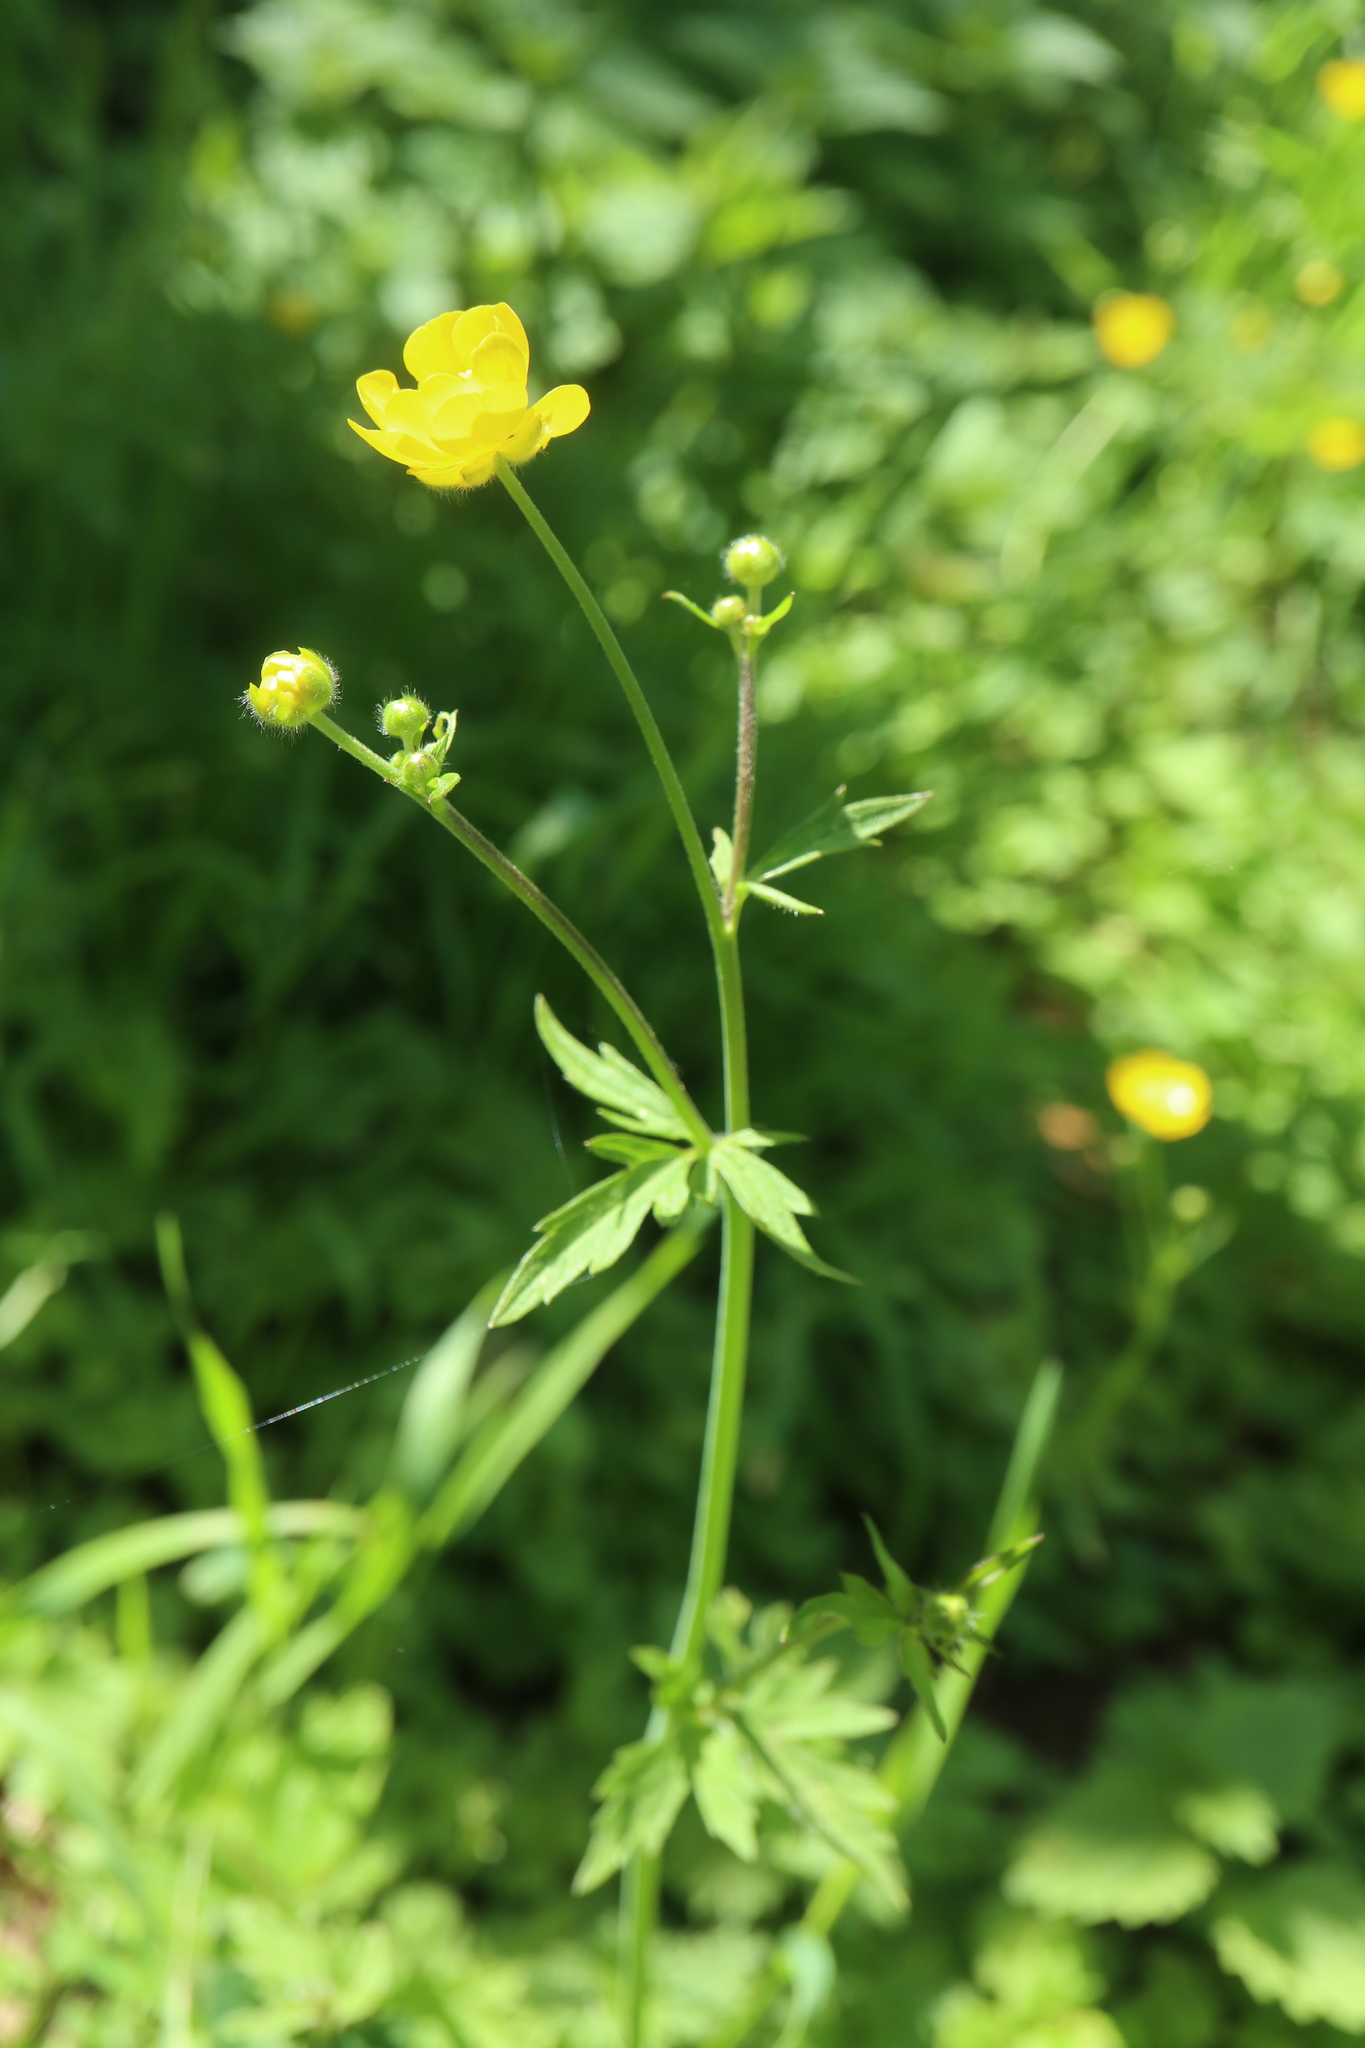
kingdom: Plantae
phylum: Tracheophyta
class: Magnoliopsida
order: Ranunculales
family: Ranunculaceae
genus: Ranunculus
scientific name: Ranunculus acris
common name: Meadow buttercup
